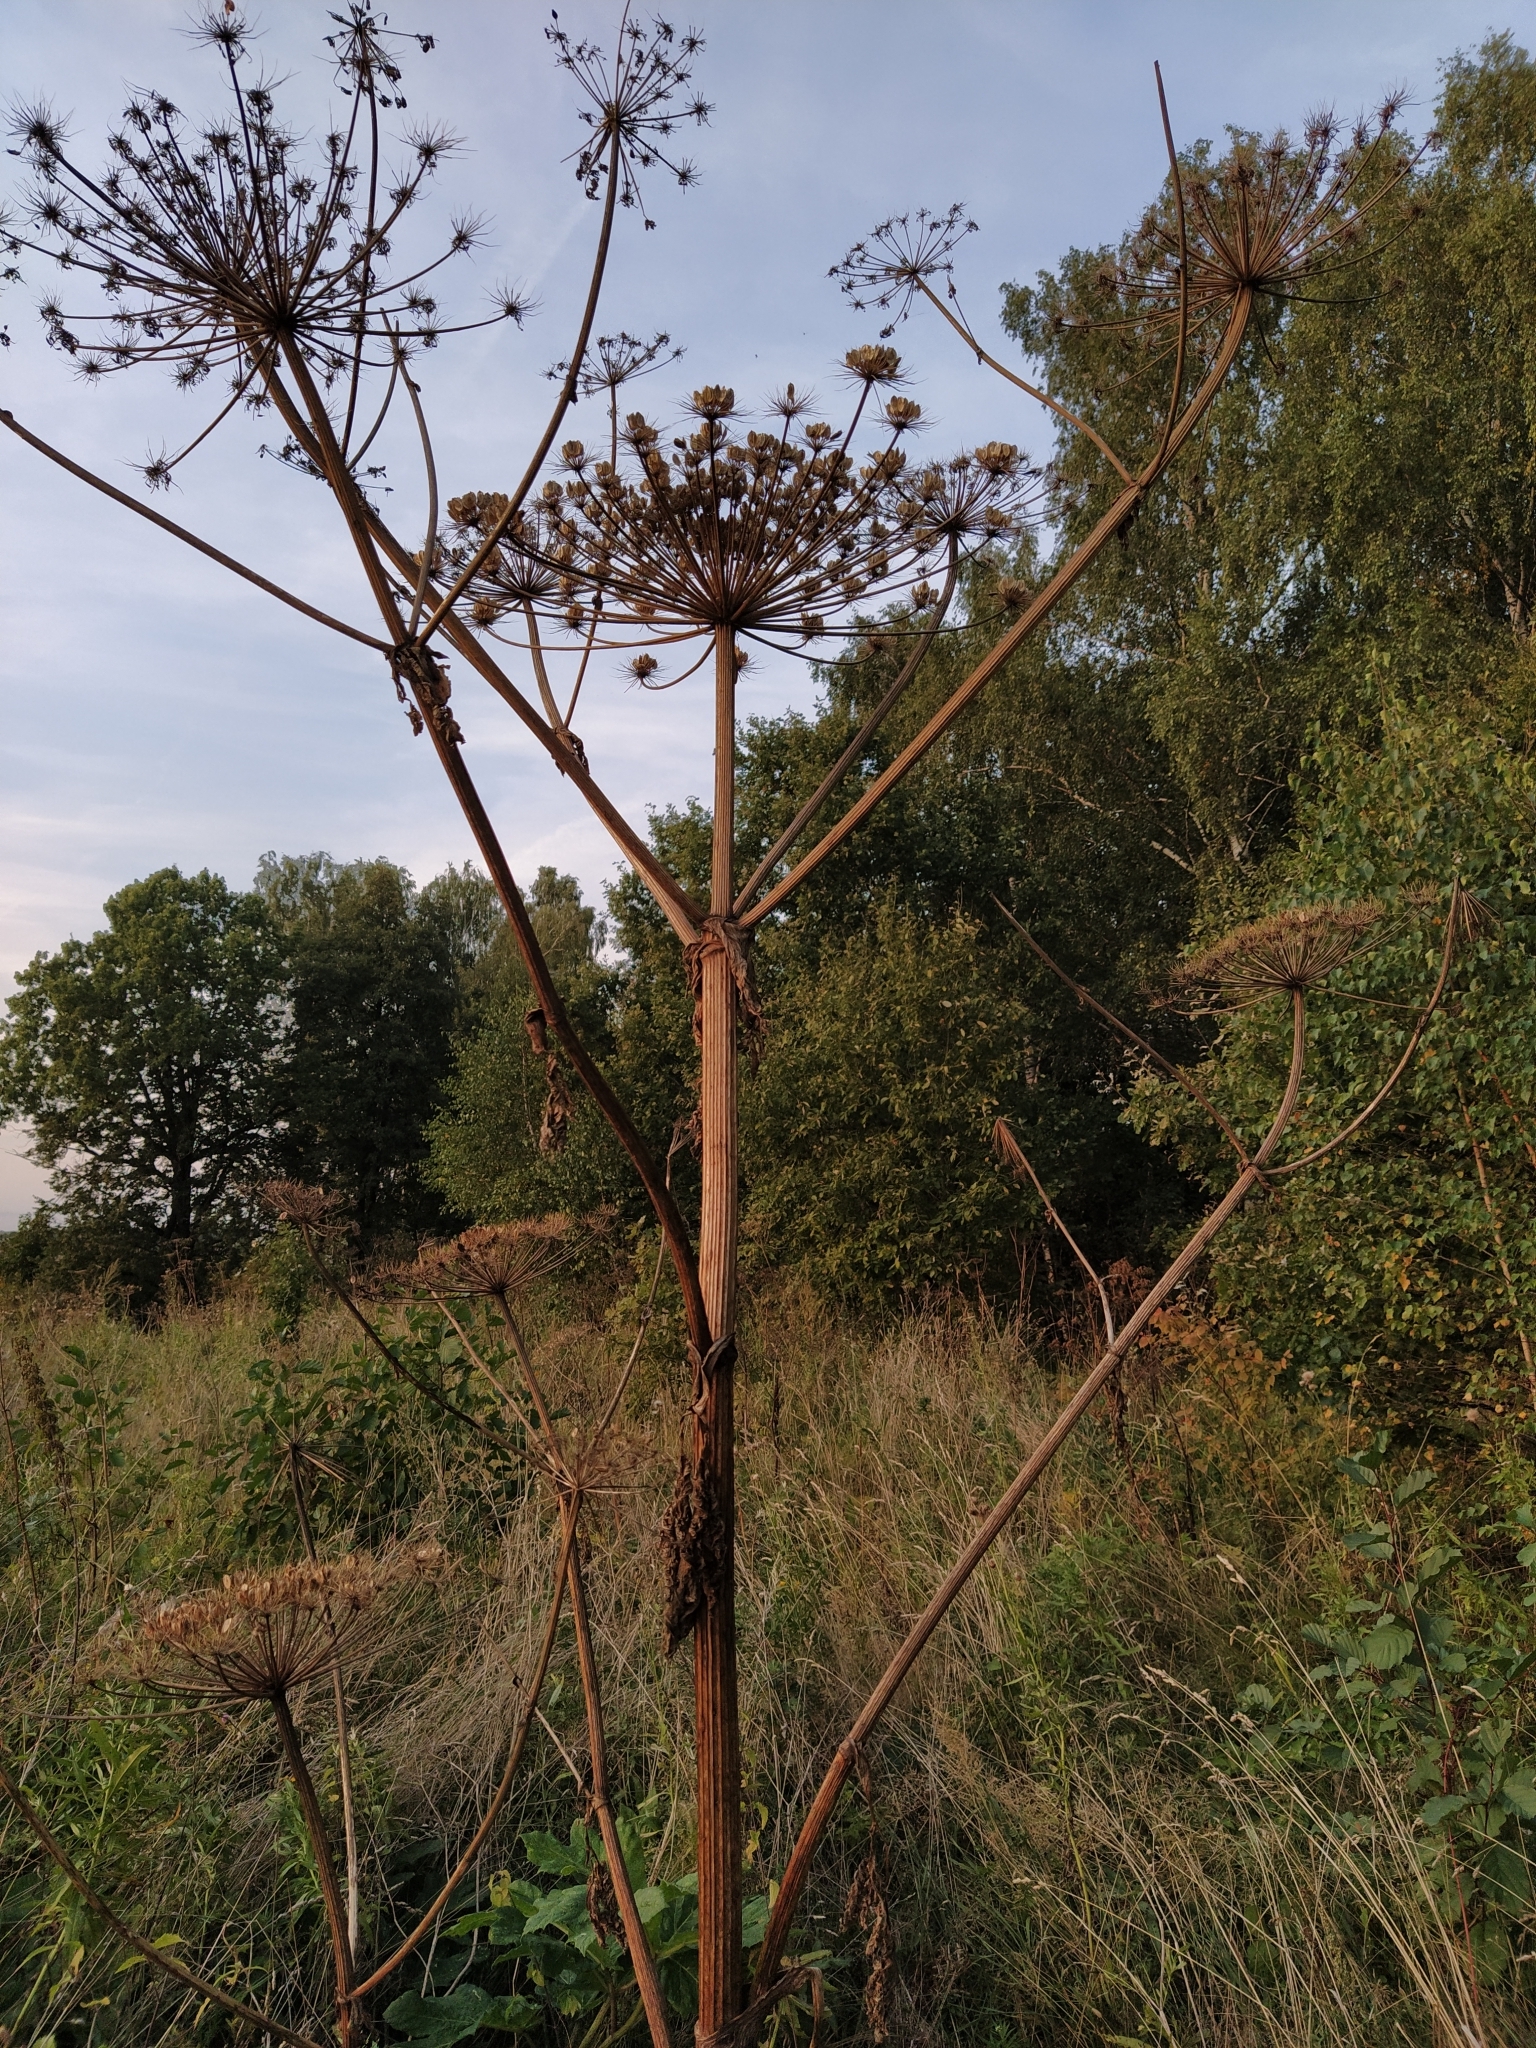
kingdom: Plantae
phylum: Tracheophyta
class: Magnoliopsida
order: Apiales
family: Apiaceae
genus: Heracleum
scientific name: Heracleum sosnowskyi
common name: Sosnowsky's hogweed
